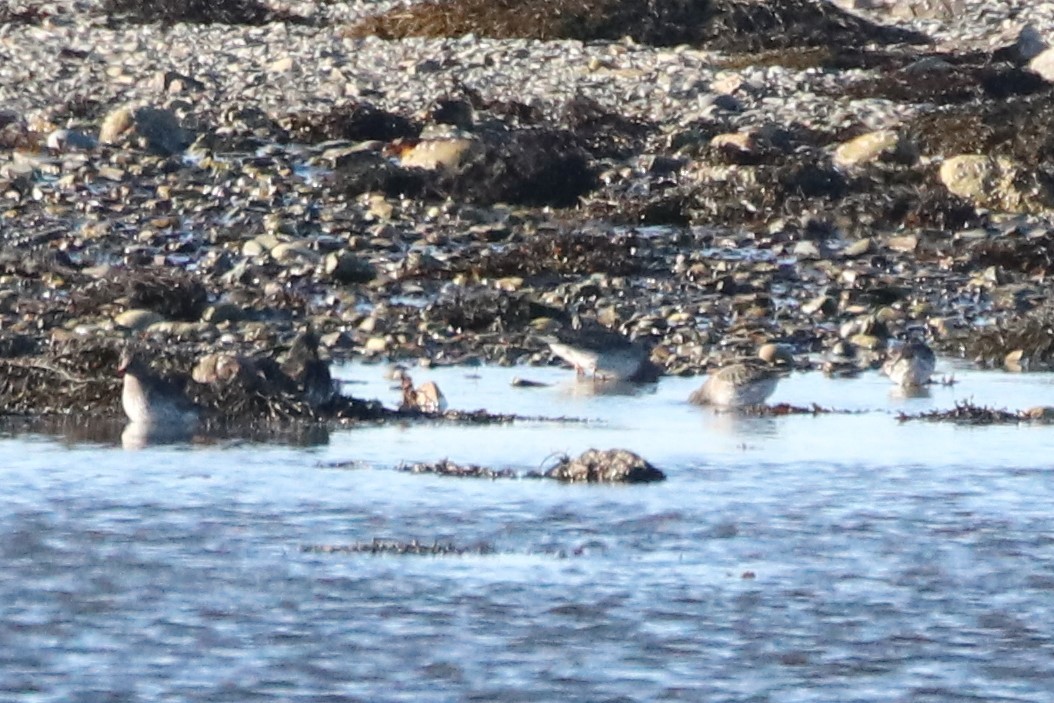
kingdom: Animalia
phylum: Chordata
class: Aves
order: Charadriiformes
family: Scolopacidae
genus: Calidris
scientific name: Calidris maritima
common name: Purple sandpiper
